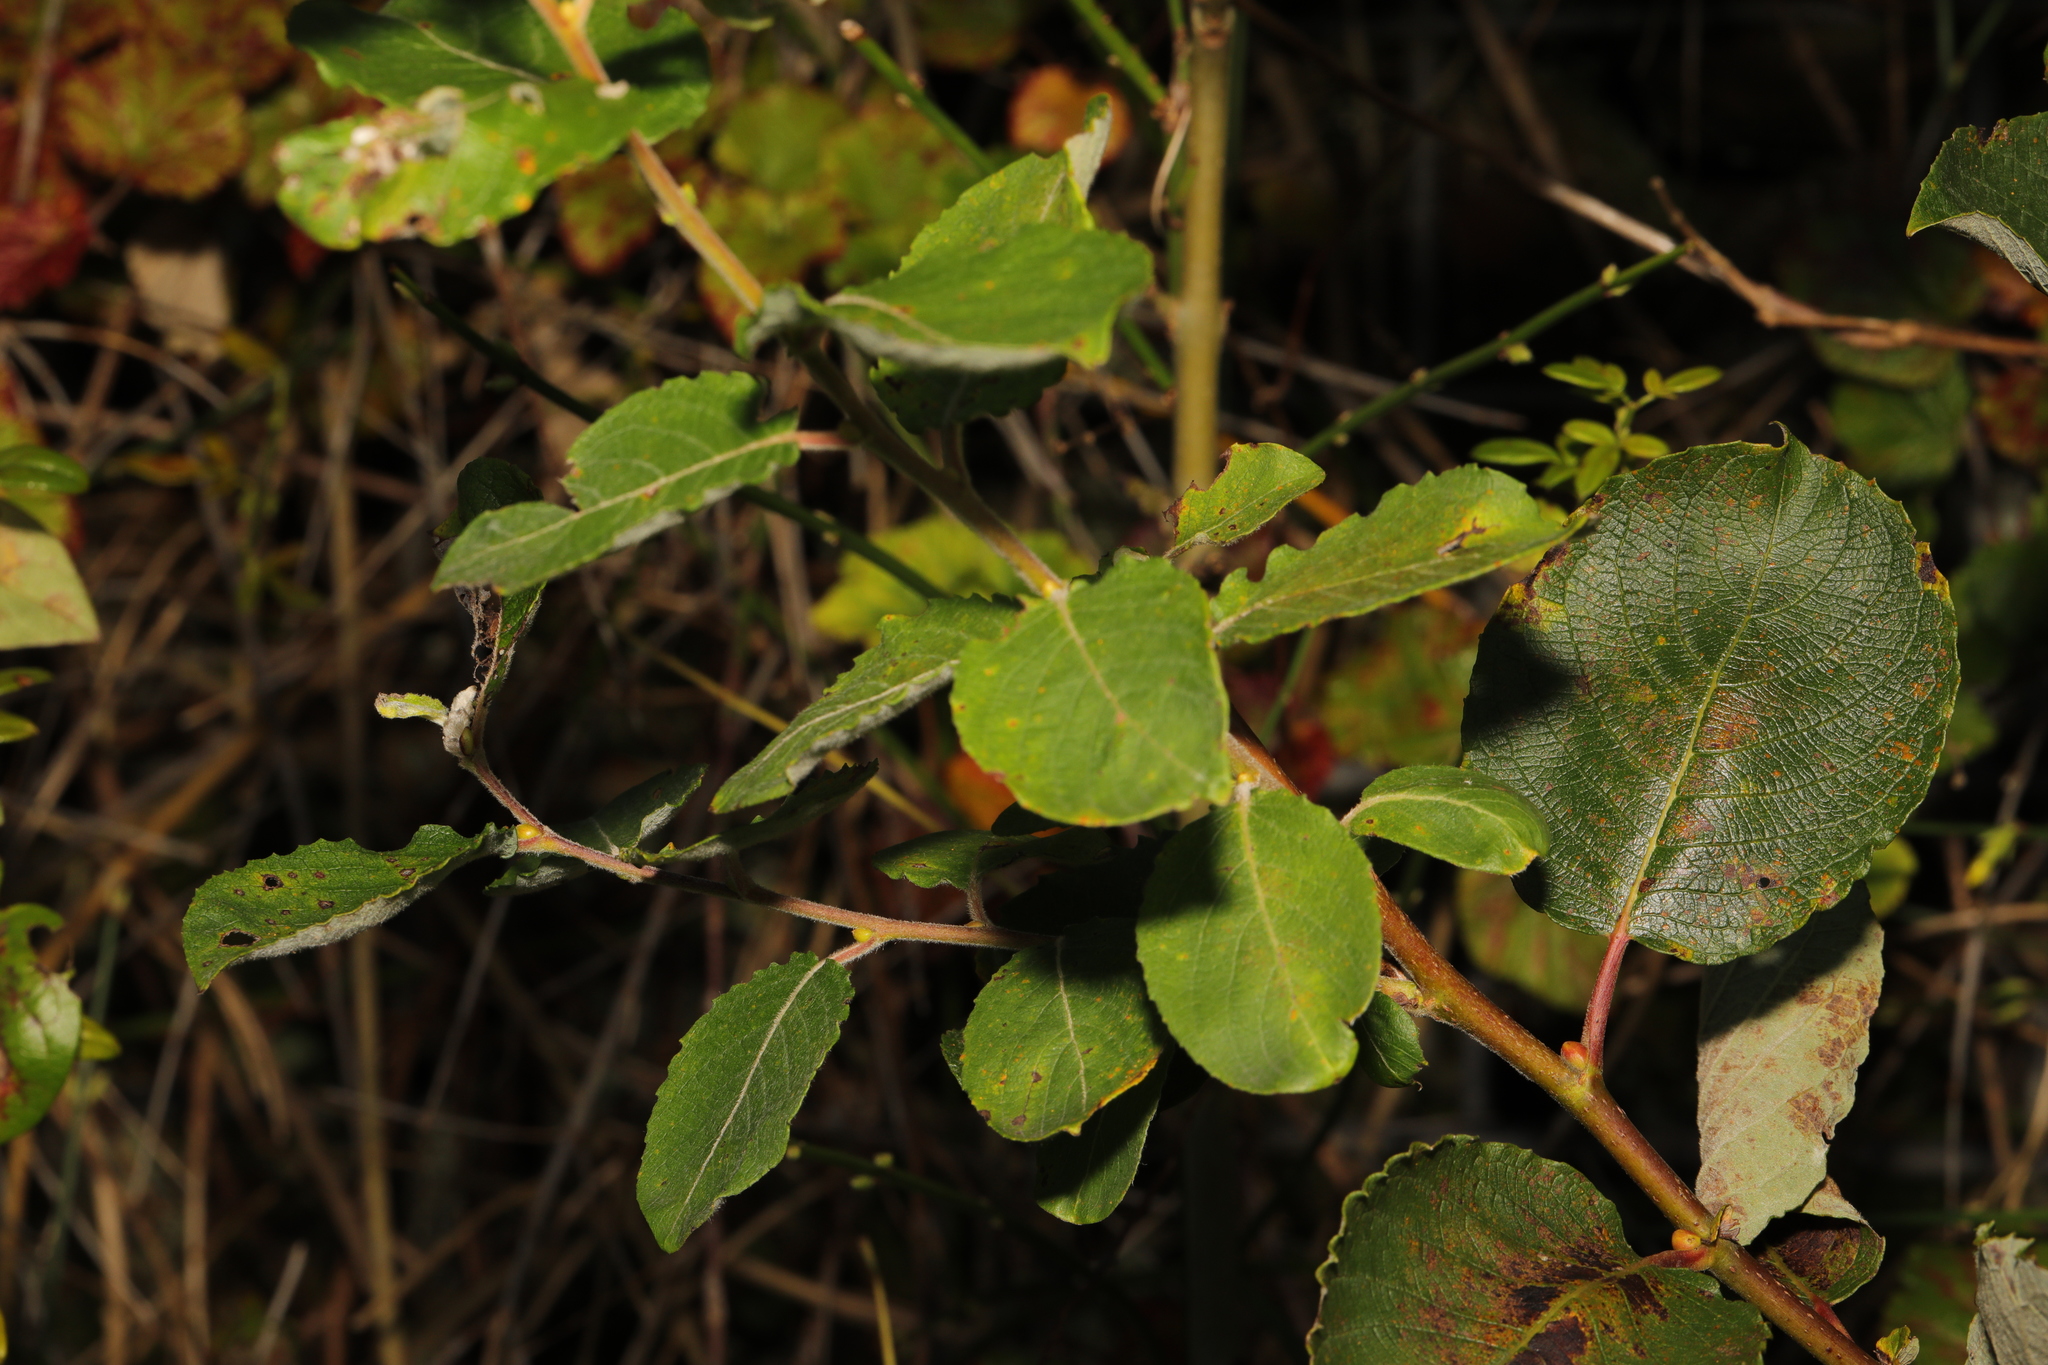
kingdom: Plantae
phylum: Tracheophyta
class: Magnoliopsida
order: Malpighiales
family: Salicaceae
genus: Salix
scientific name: Salix caprea
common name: Goat willow
